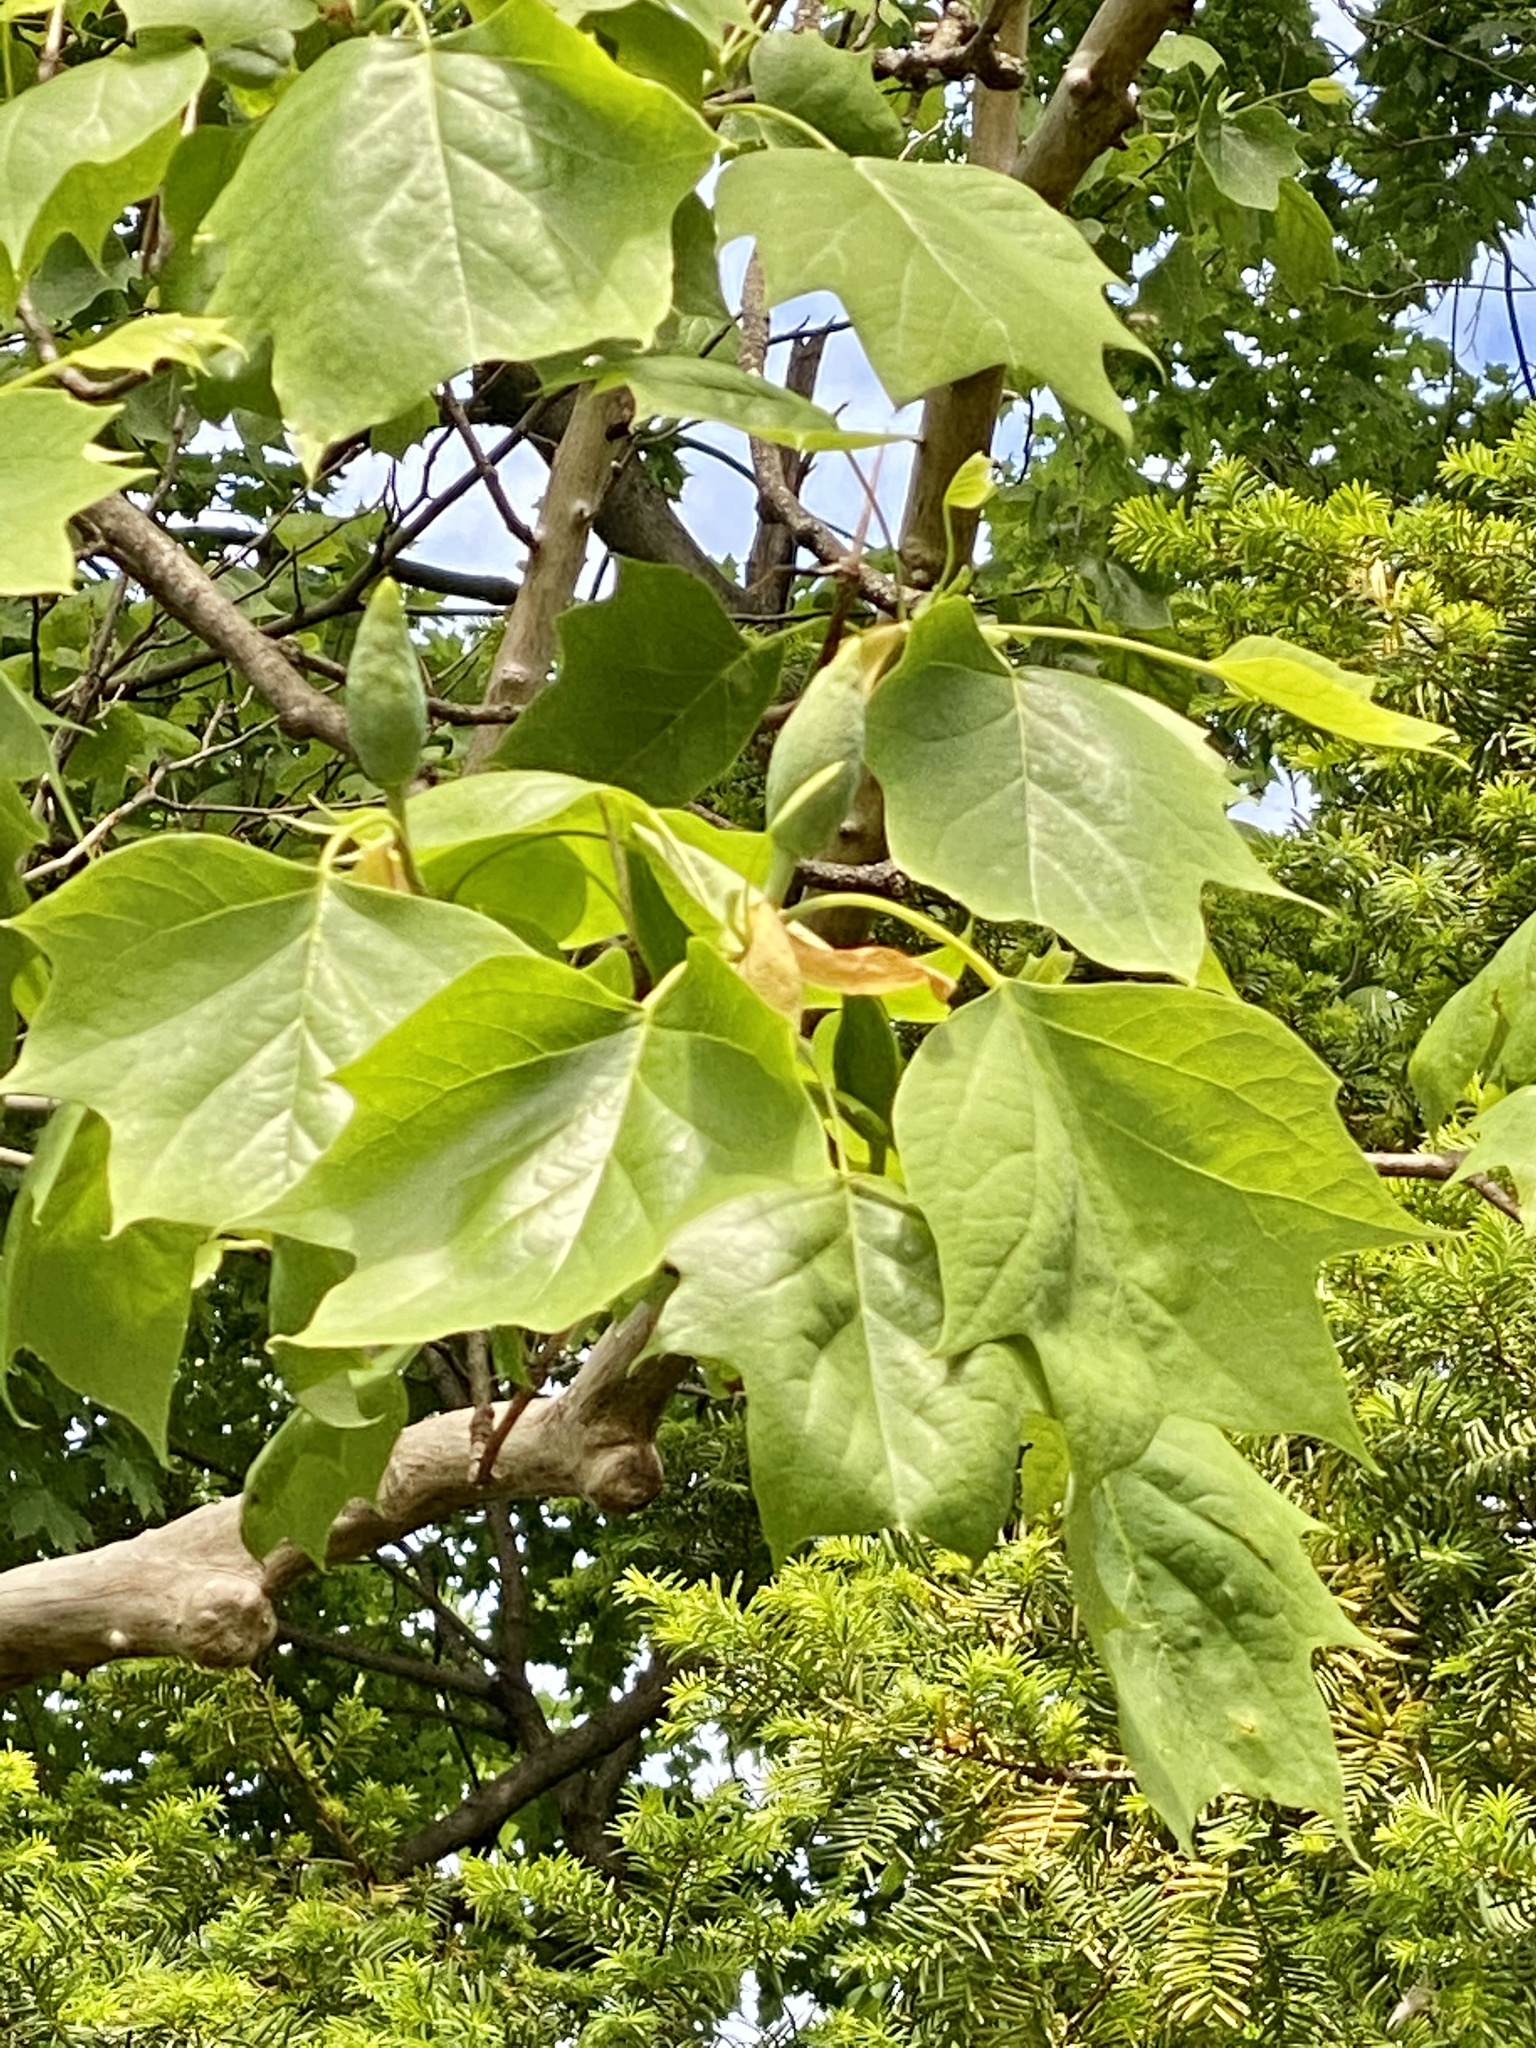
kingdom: Plantae
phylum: Tracheophyta
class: Magnoliopsida
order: Magnoliales
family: Magnoliaceae
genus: Liriodendron
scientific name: Liriodendron tulipifera
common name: Tulip tree
